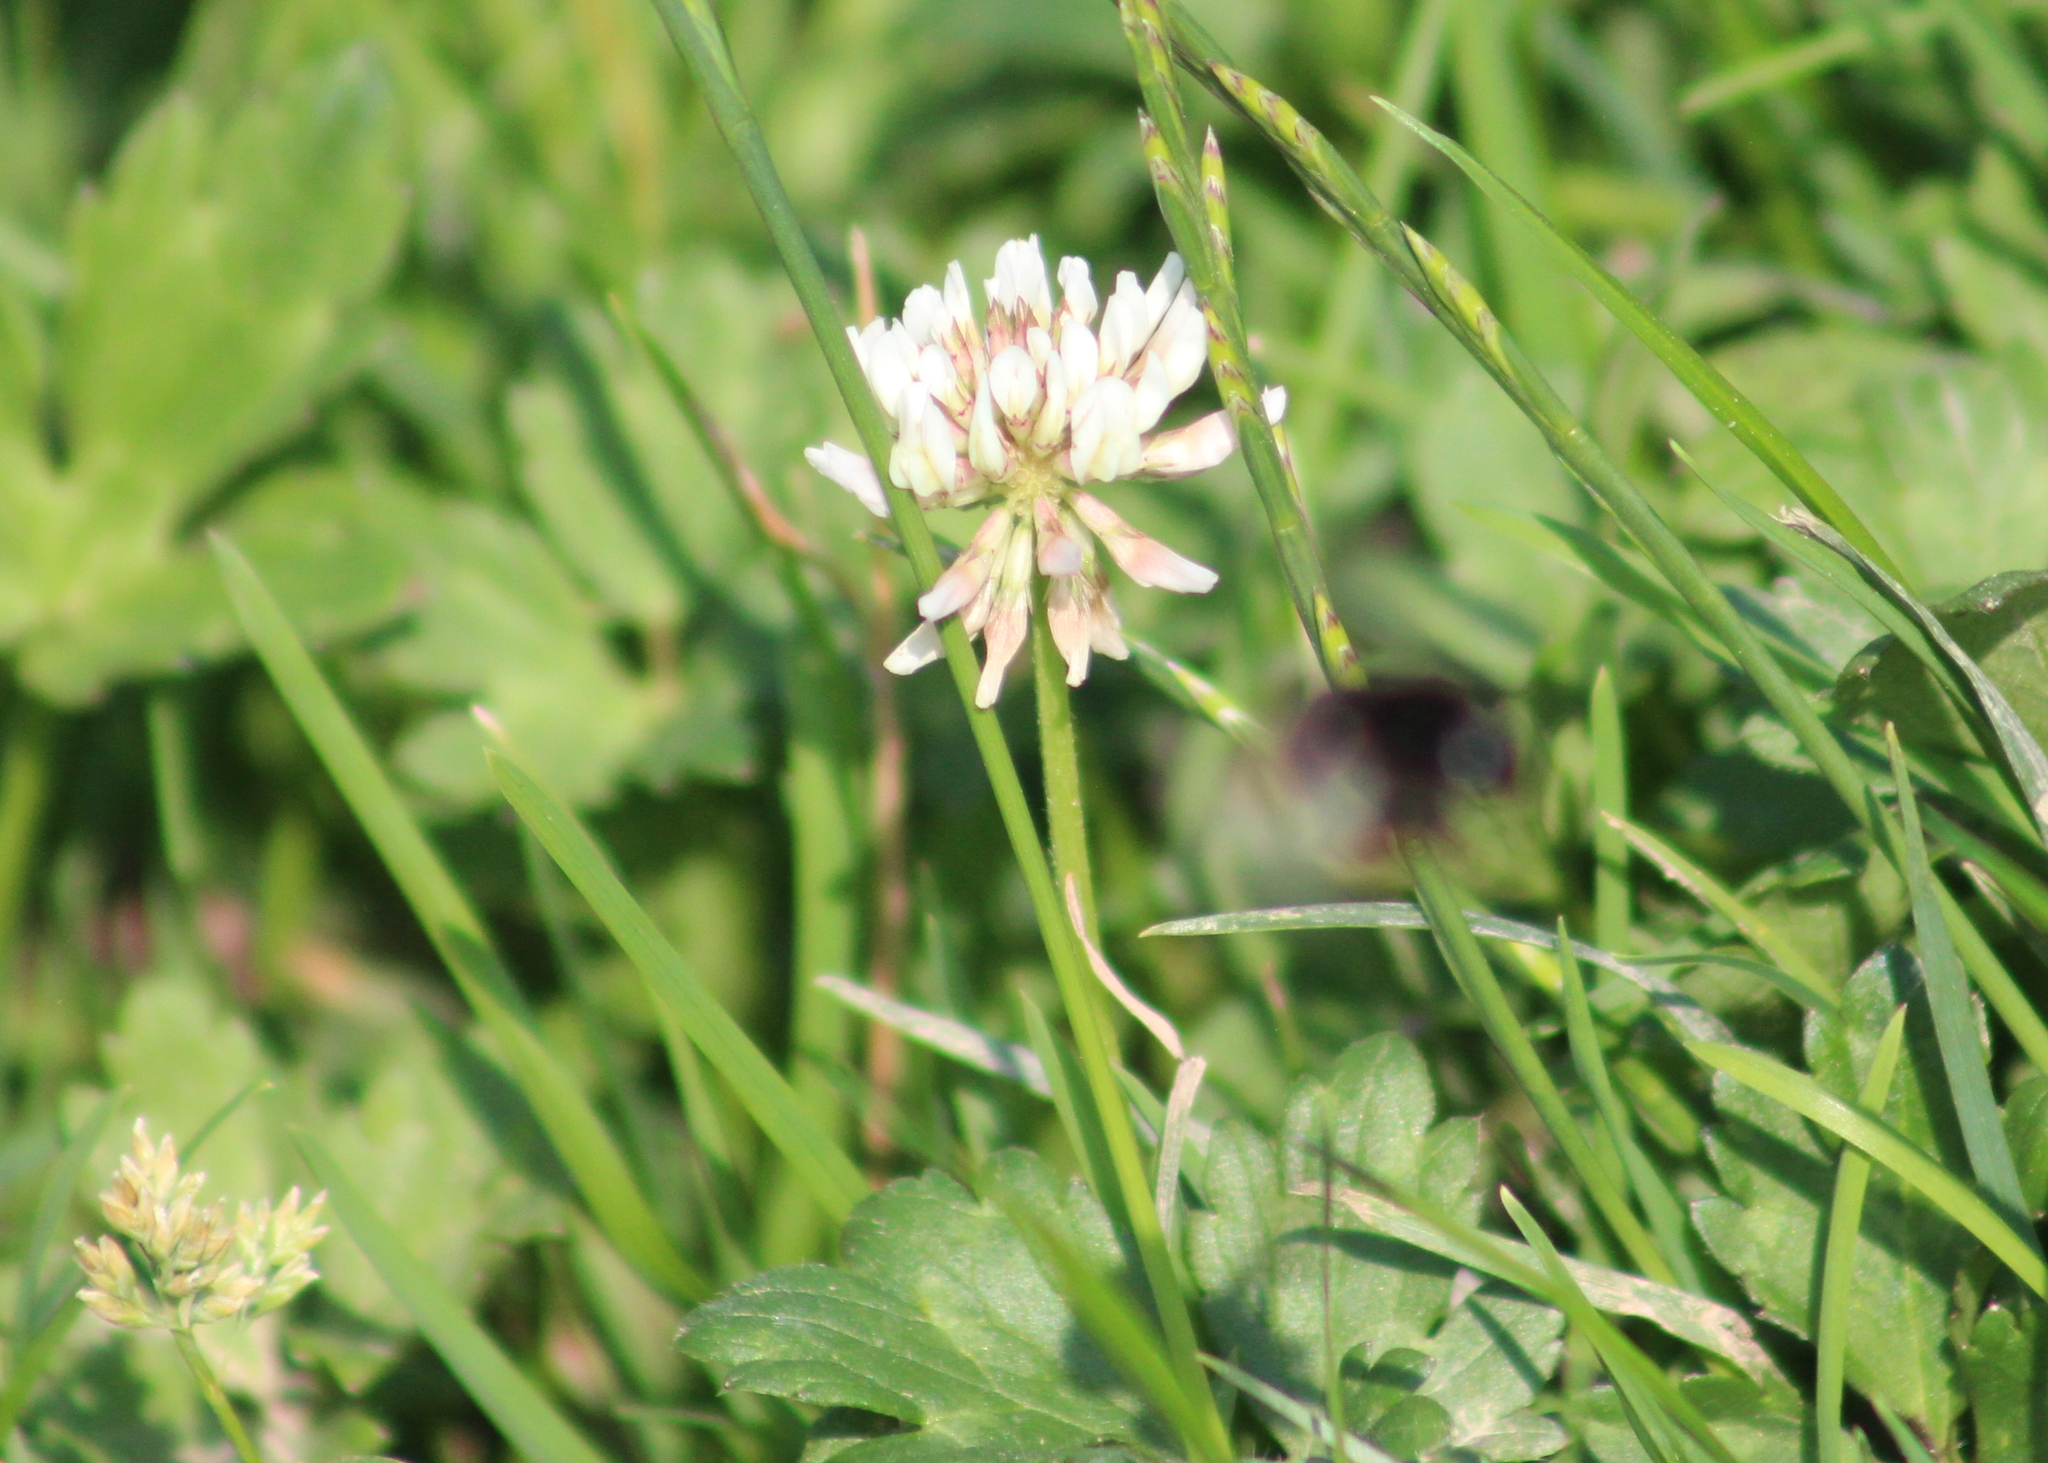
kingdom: Plantae
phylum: Tracheophyta
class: Magnoliopsida
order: Fabales
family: Fabaceae
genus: Trifolium
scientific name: Trifolium repens
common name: White clover
